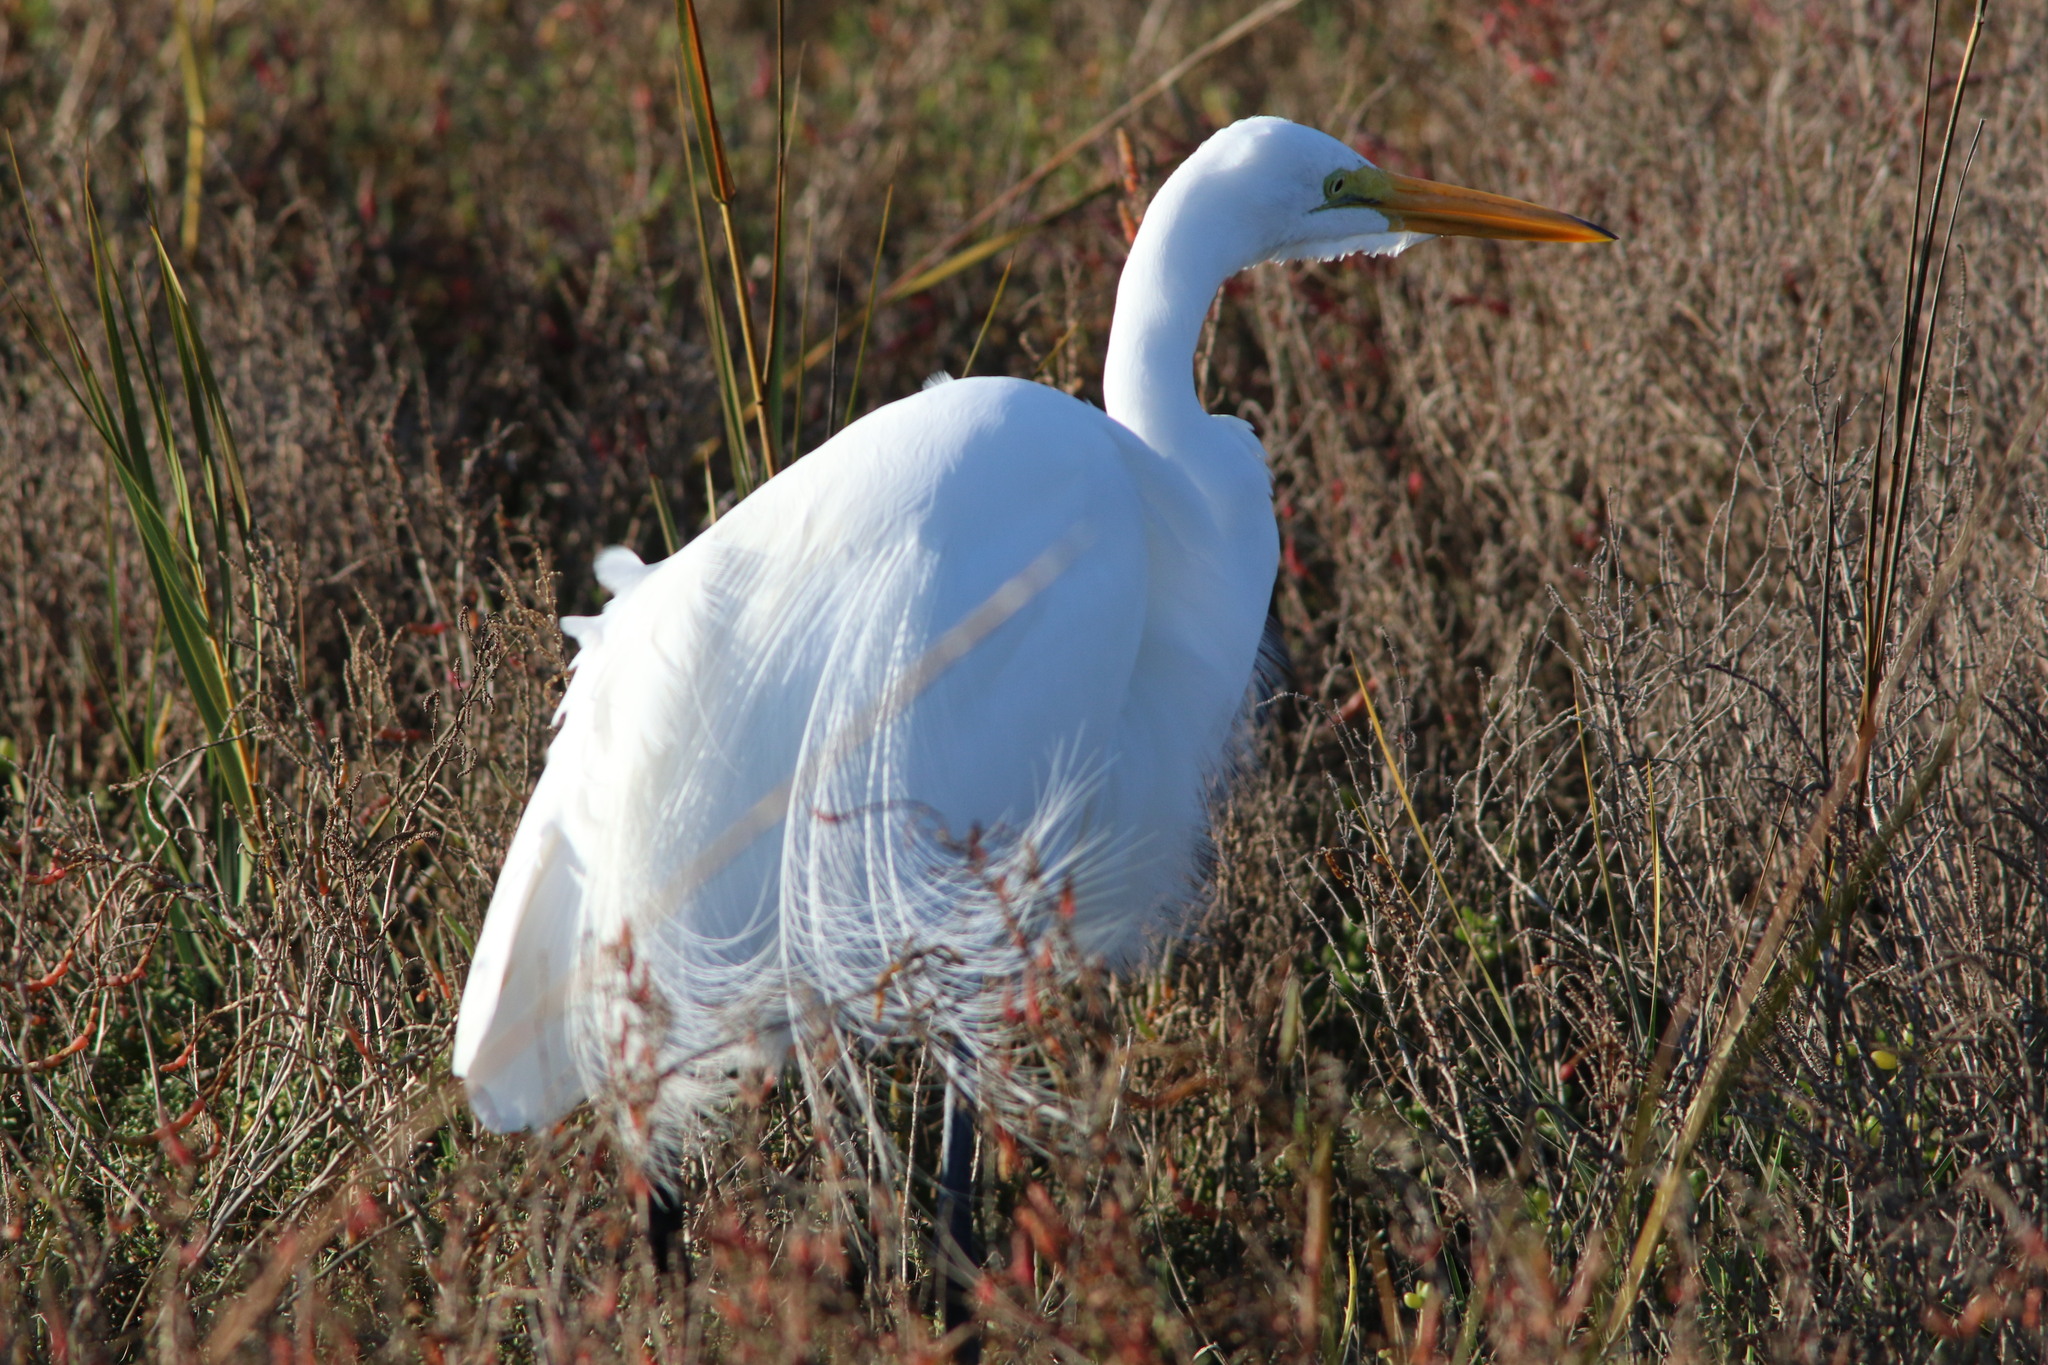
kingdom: Animalia
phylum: Chordata
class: Aves
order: Pelecaniformes
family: Ardeidae
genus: Ardea
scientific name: Ardea alba
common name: Great egret
